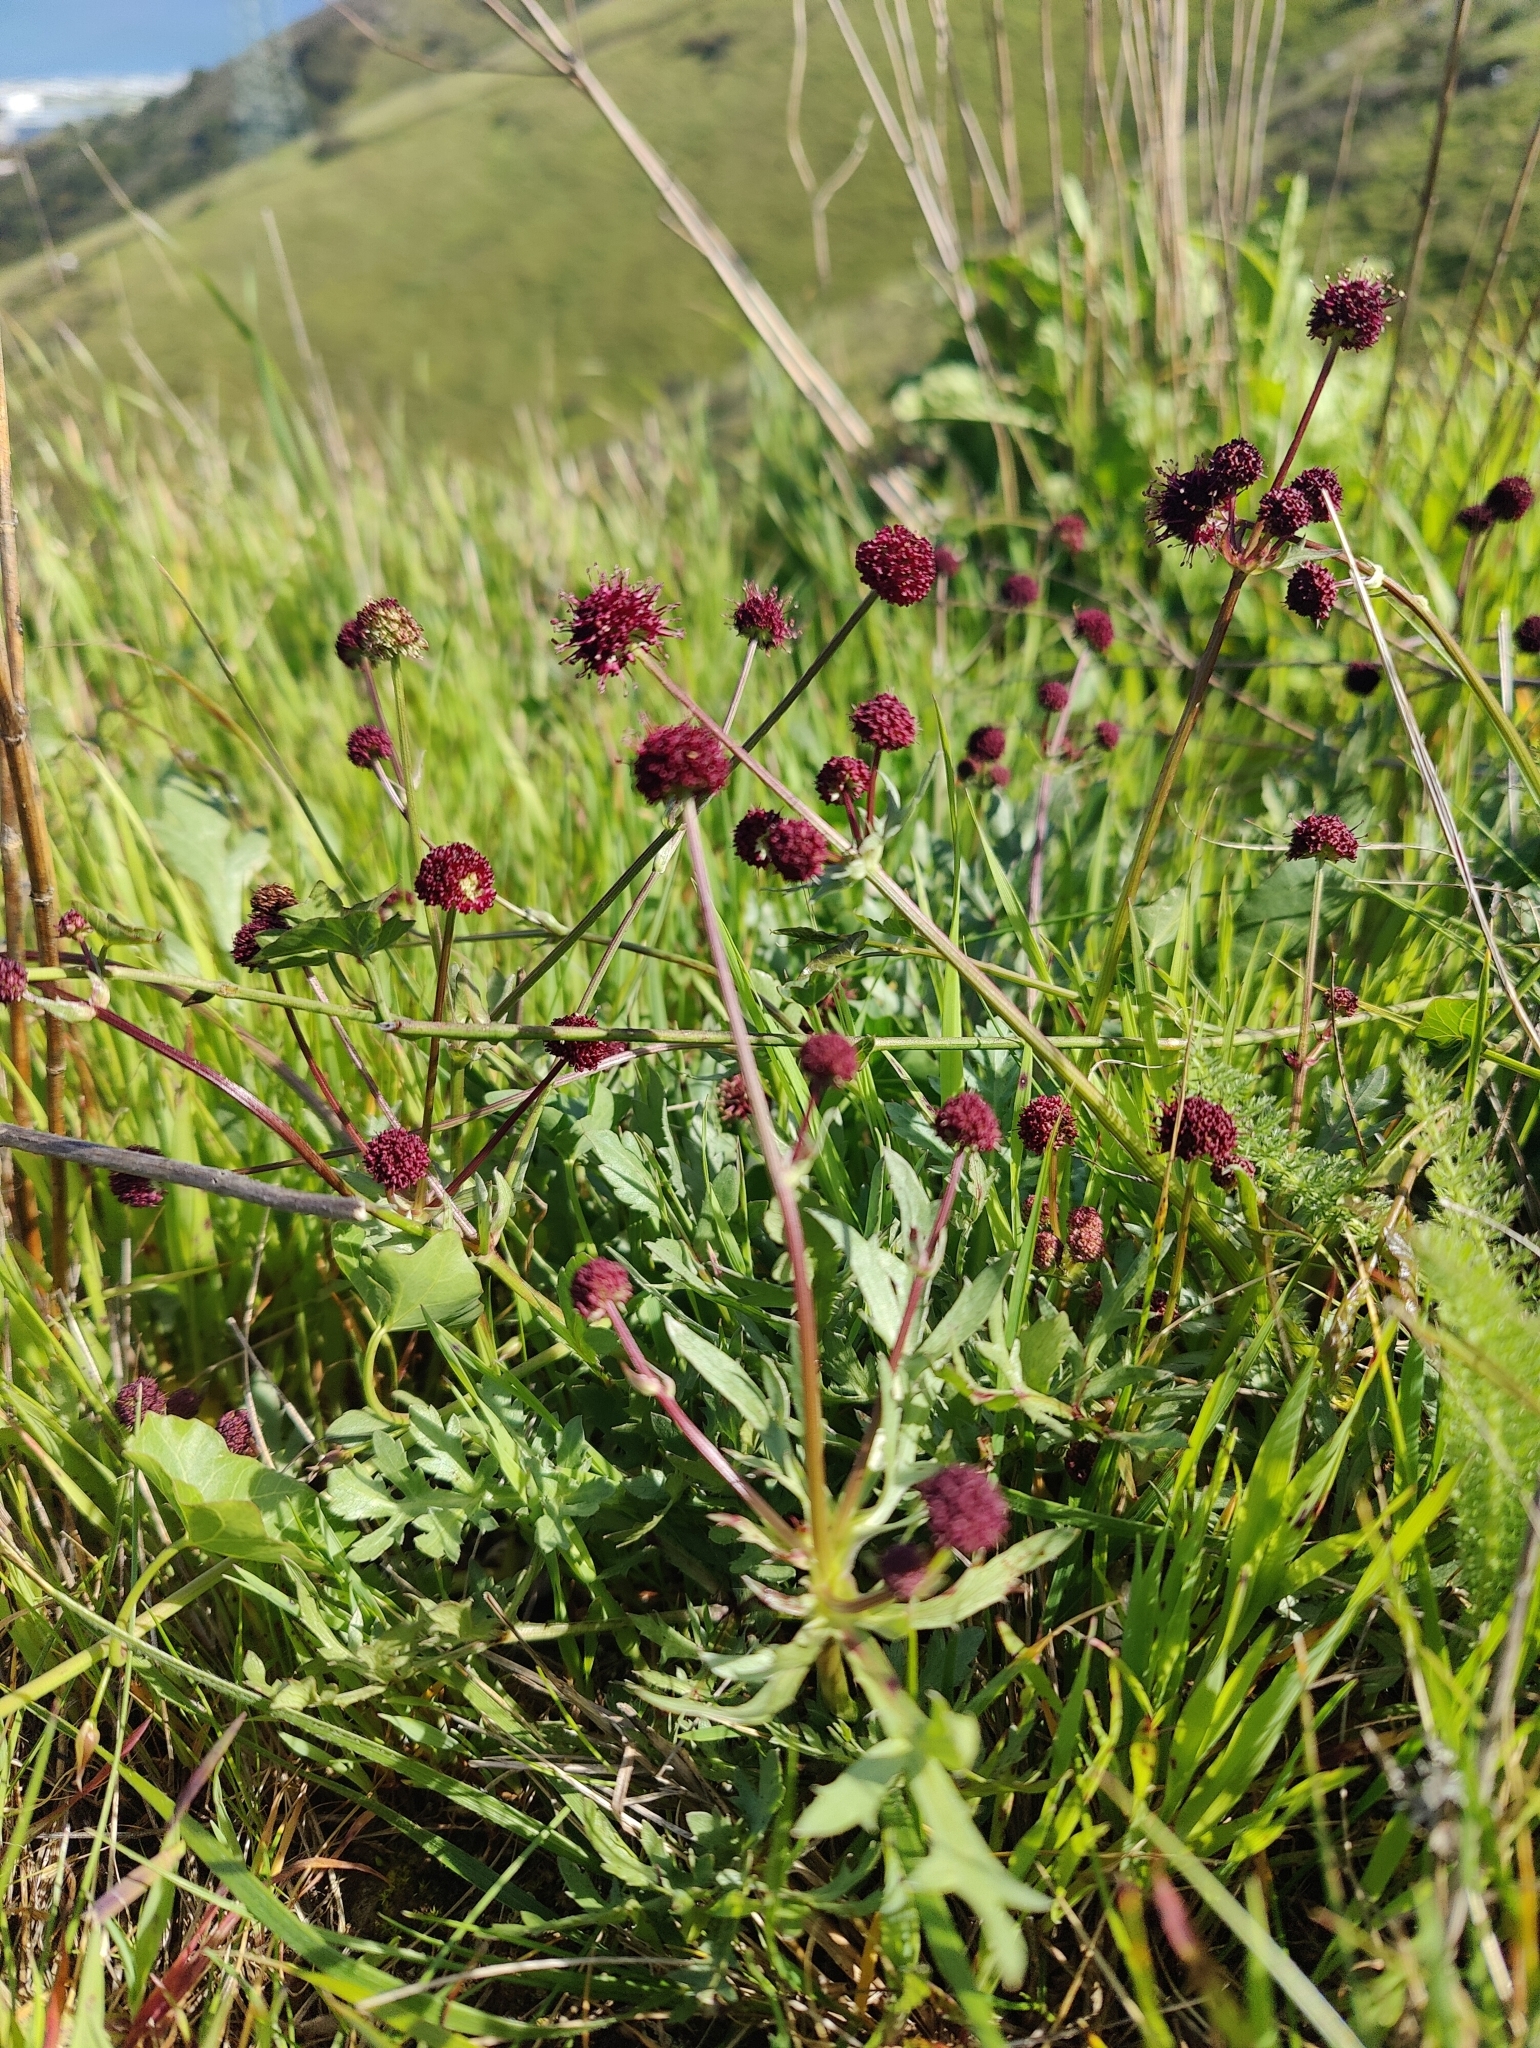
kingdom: Plantae
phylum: Tracheophyta
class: Magnoliopsida
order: Apiales
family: Apiaceae
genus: Sanicula
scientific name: Sanicula bipinnatifida
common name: Shoe-buttons
